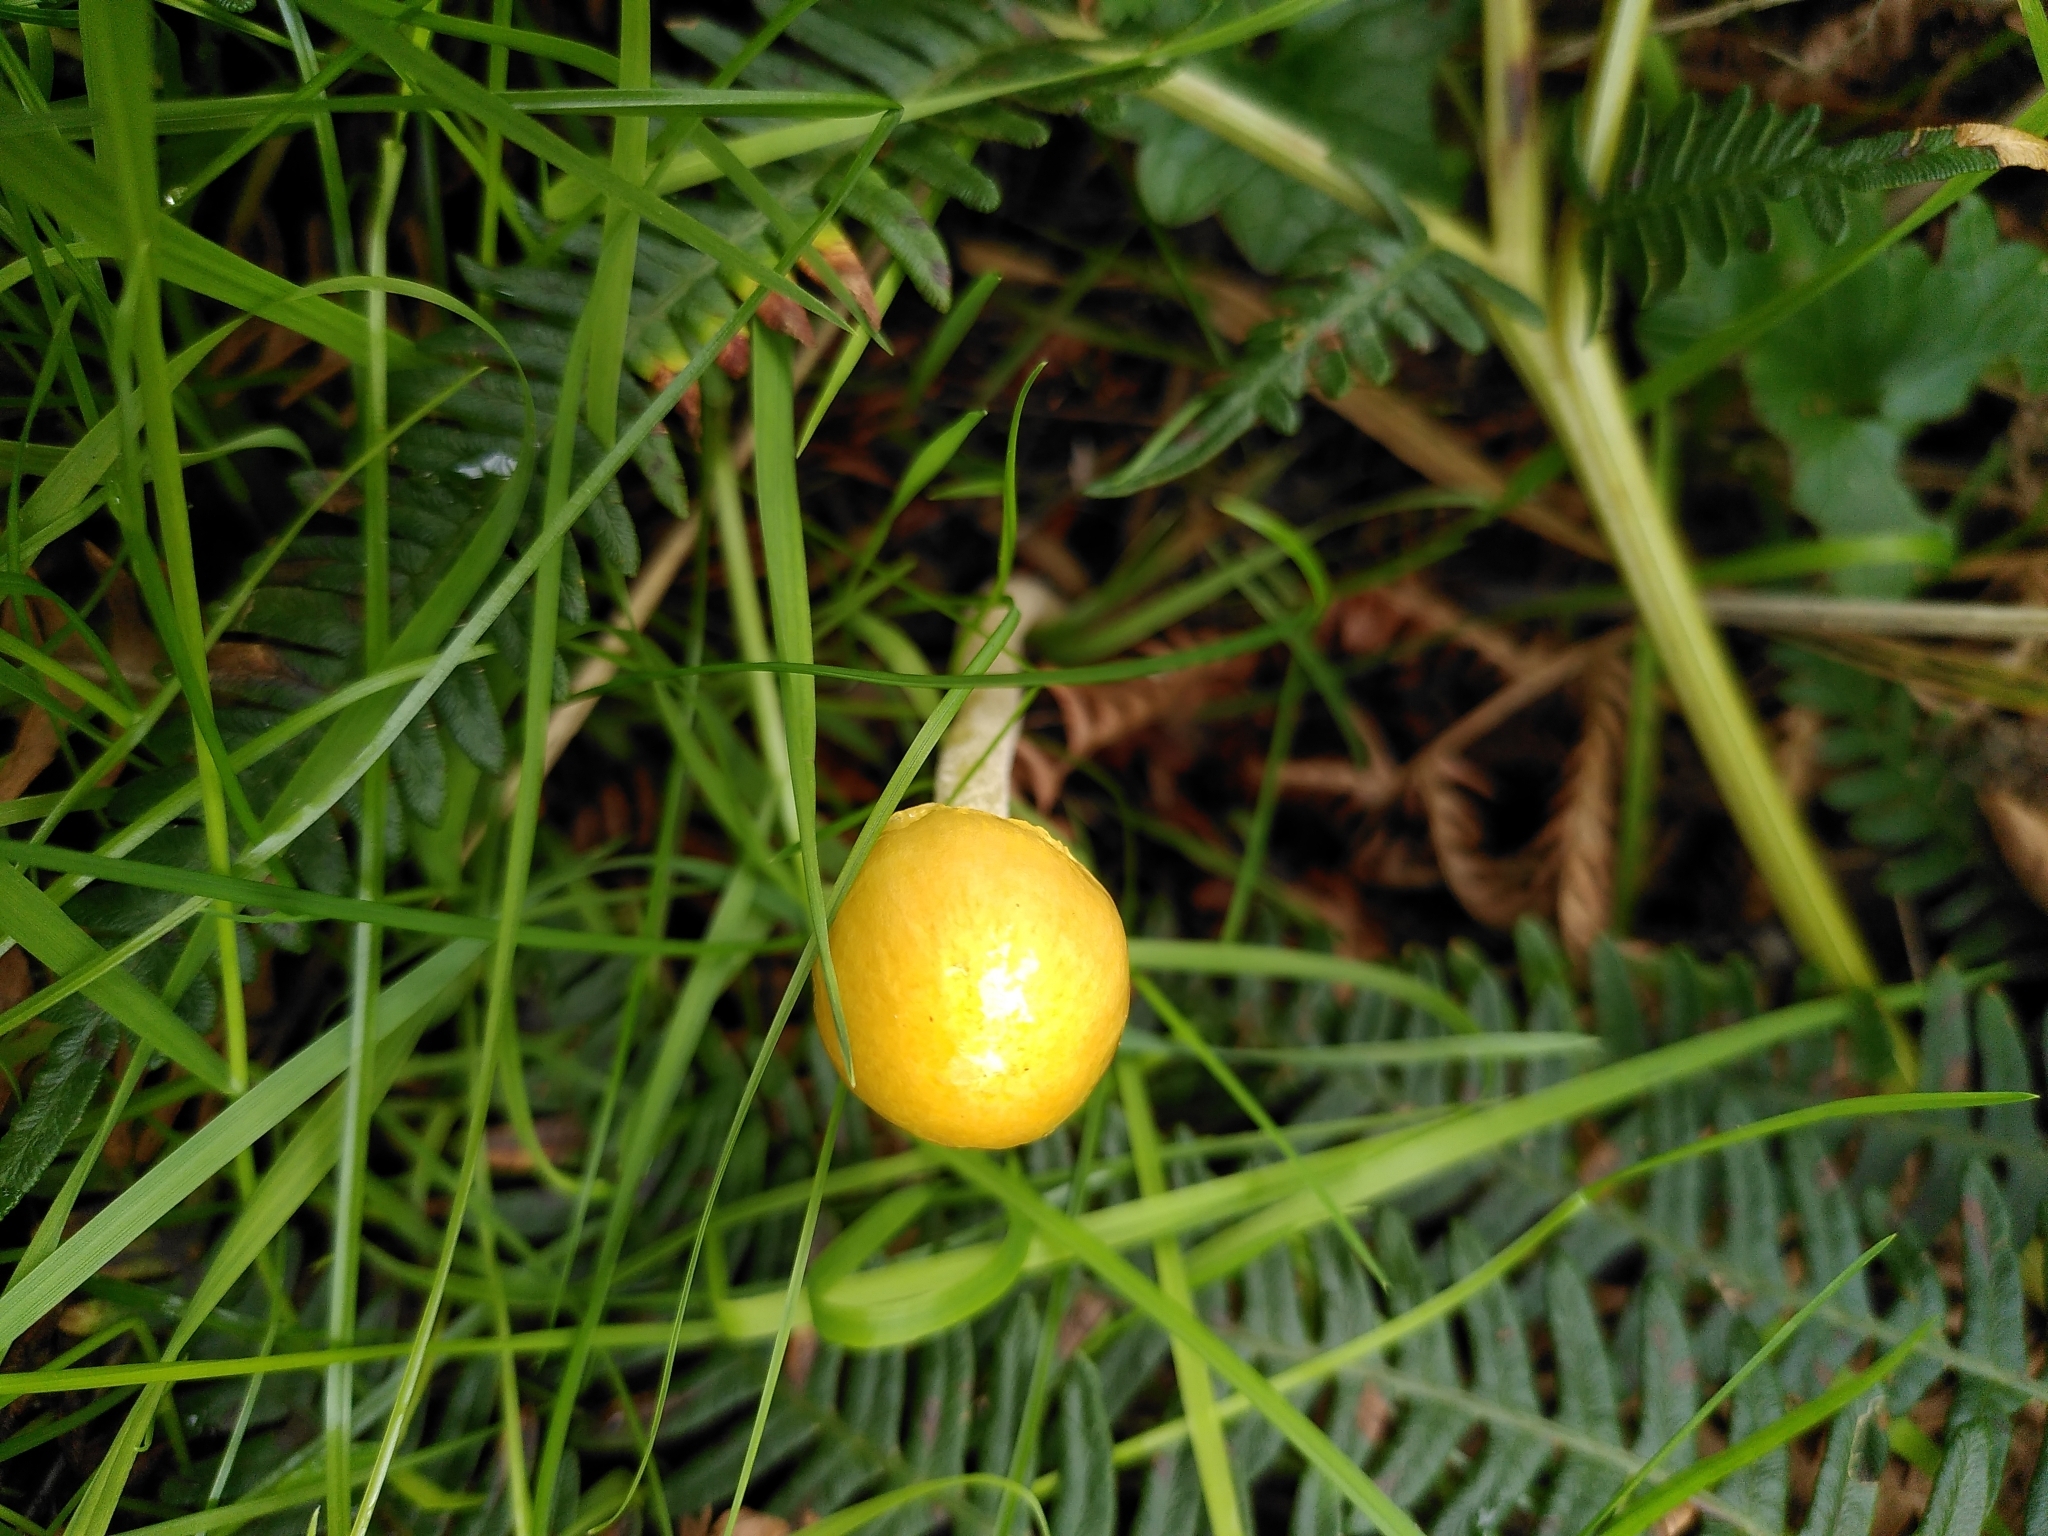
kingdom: Fungi
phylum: Basidiomycota
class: Agaricomycetes
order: Agaricales
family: Bolbitiaceae
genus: Bolbitius
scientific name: Bolbitius titubans
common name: Yellow fieldcap
